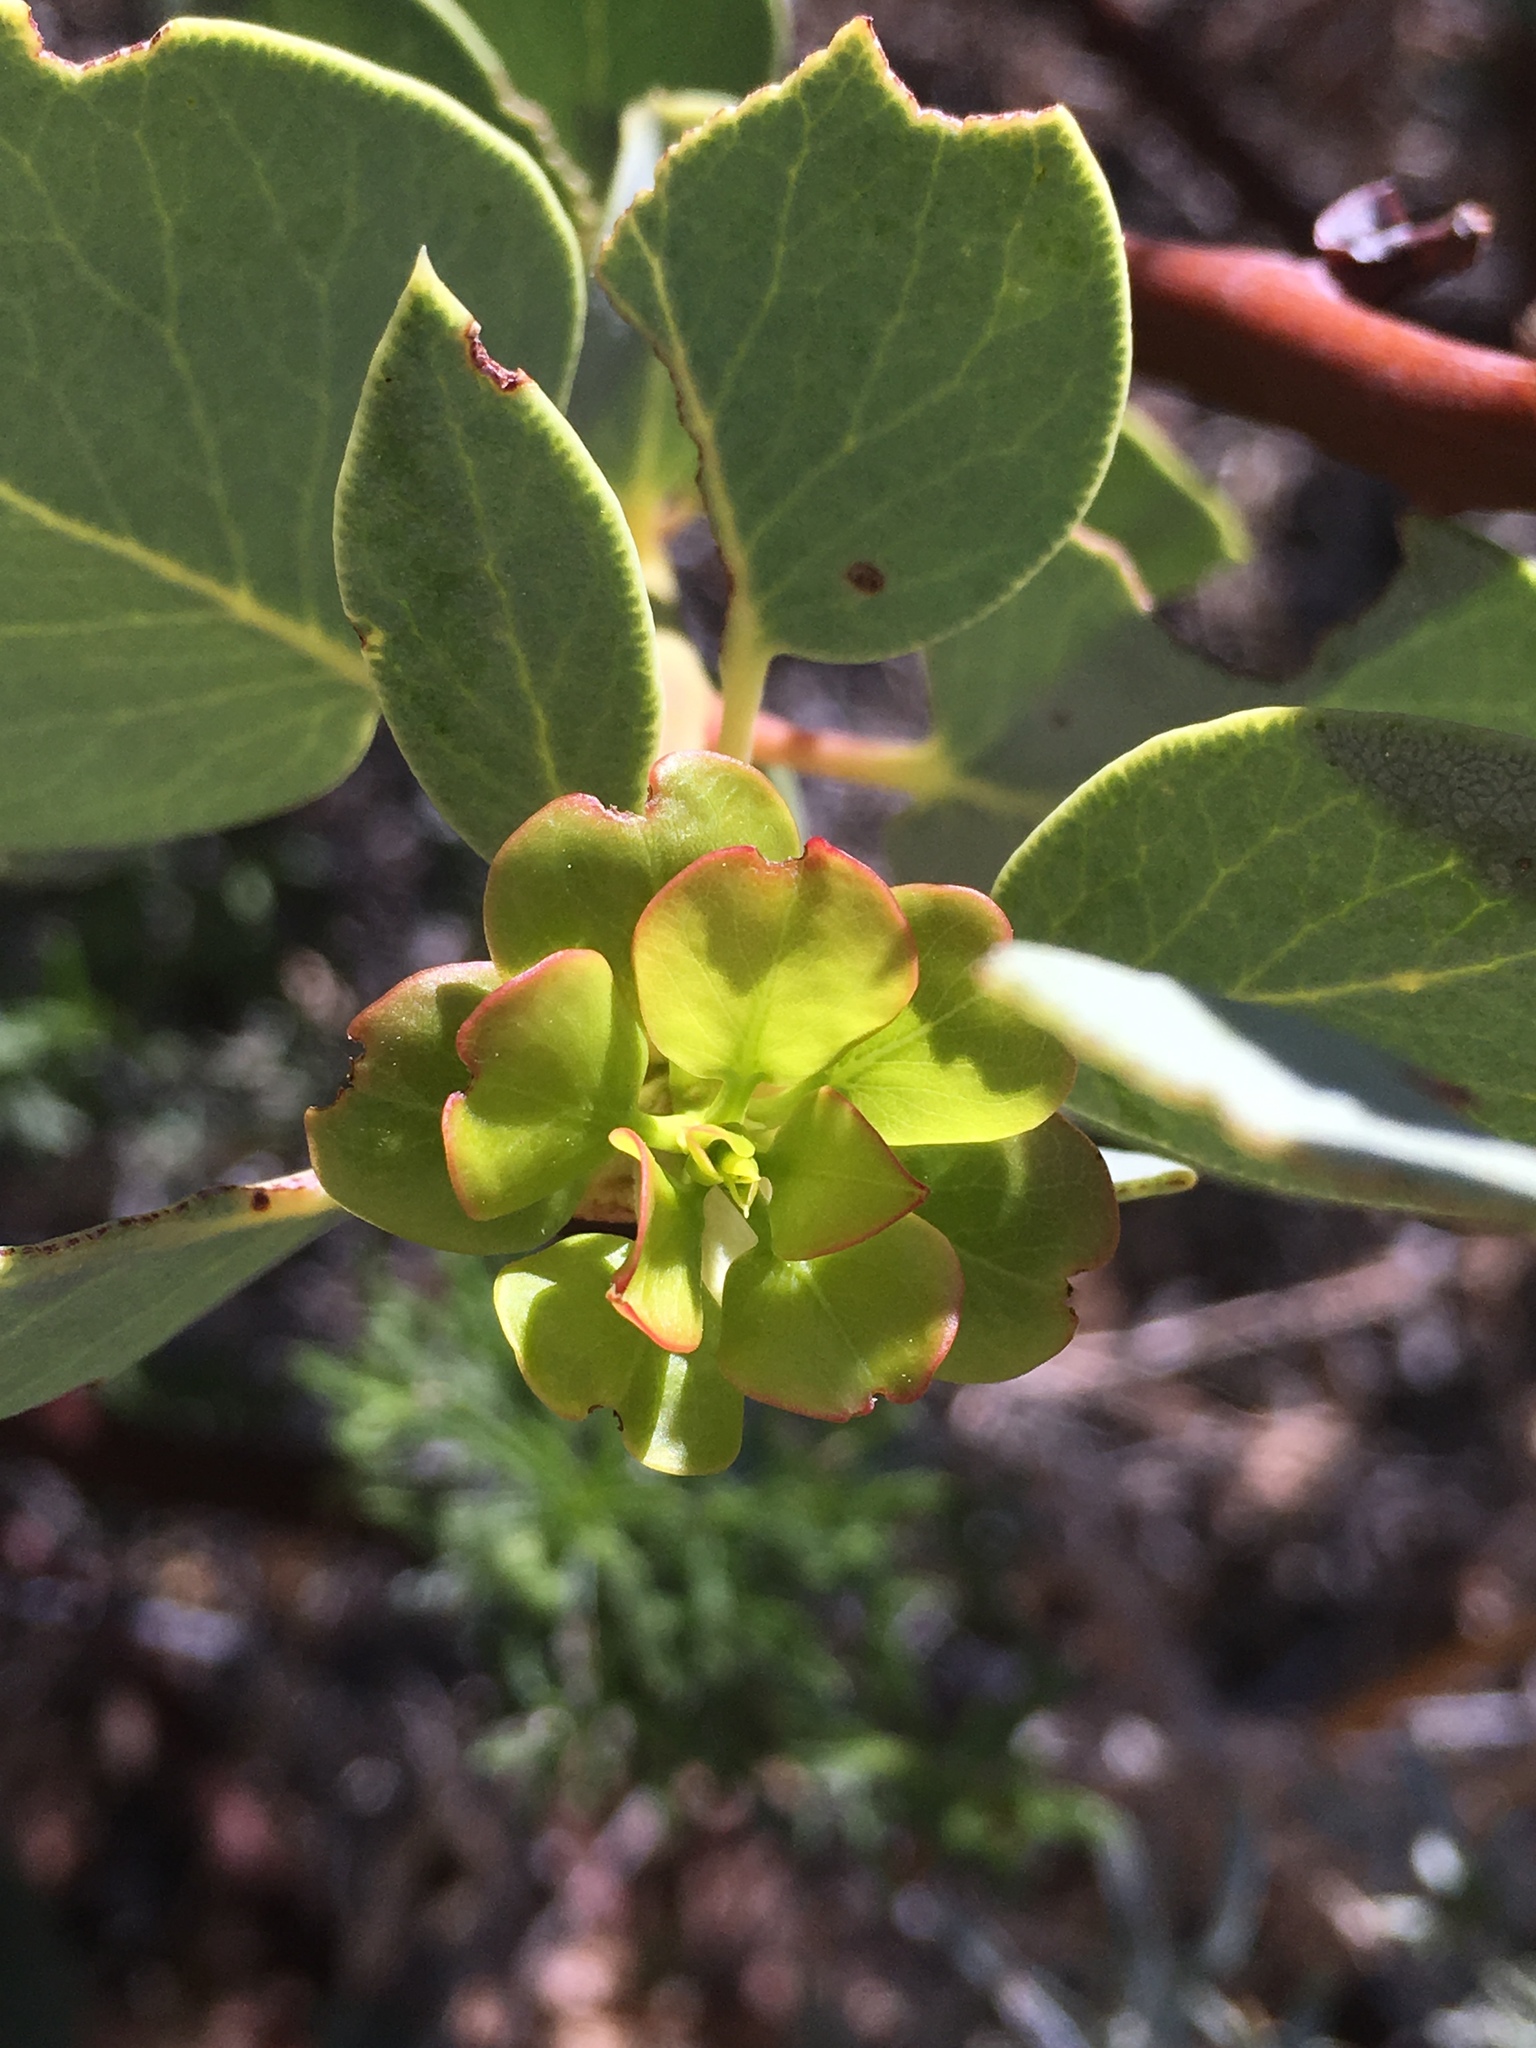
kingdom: Plantae
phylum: Tracheophyta
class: Magnoliopsida
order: Ericales
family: Ericaceae
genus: Arctostaphylos
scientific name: Arctostaphylos glauca
